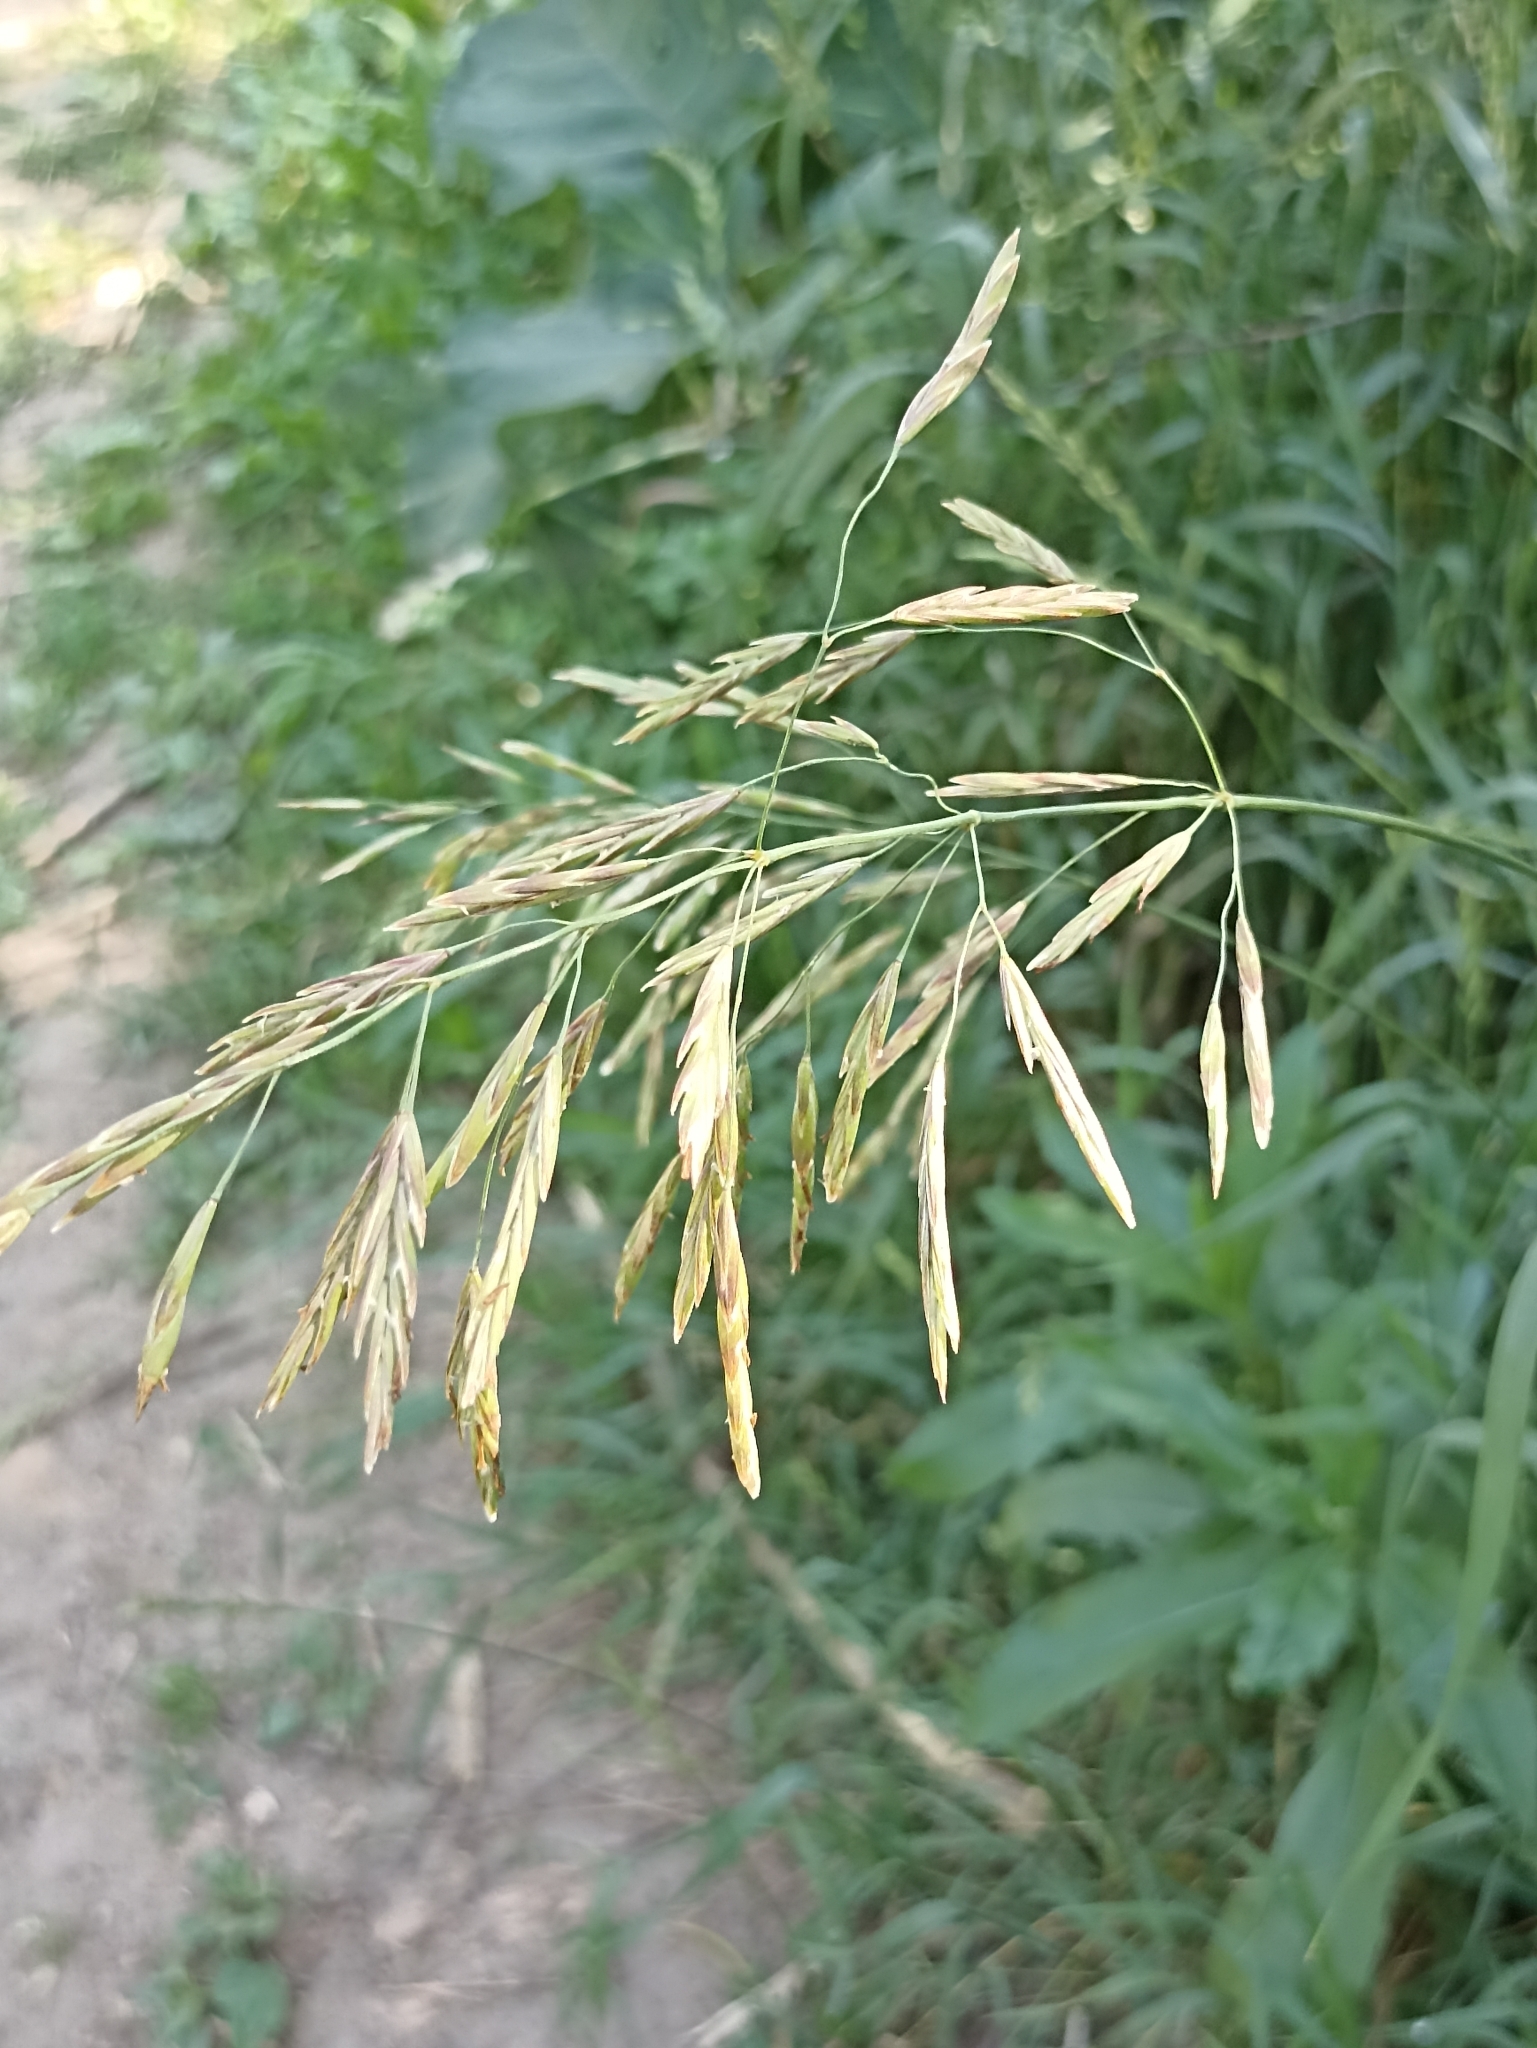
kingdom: Plantae
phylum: Tracheophyta
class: Liliopsida
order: Poales
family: Poaceae
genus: Bromus
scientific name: Bromus inermis
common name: Smooth brome
